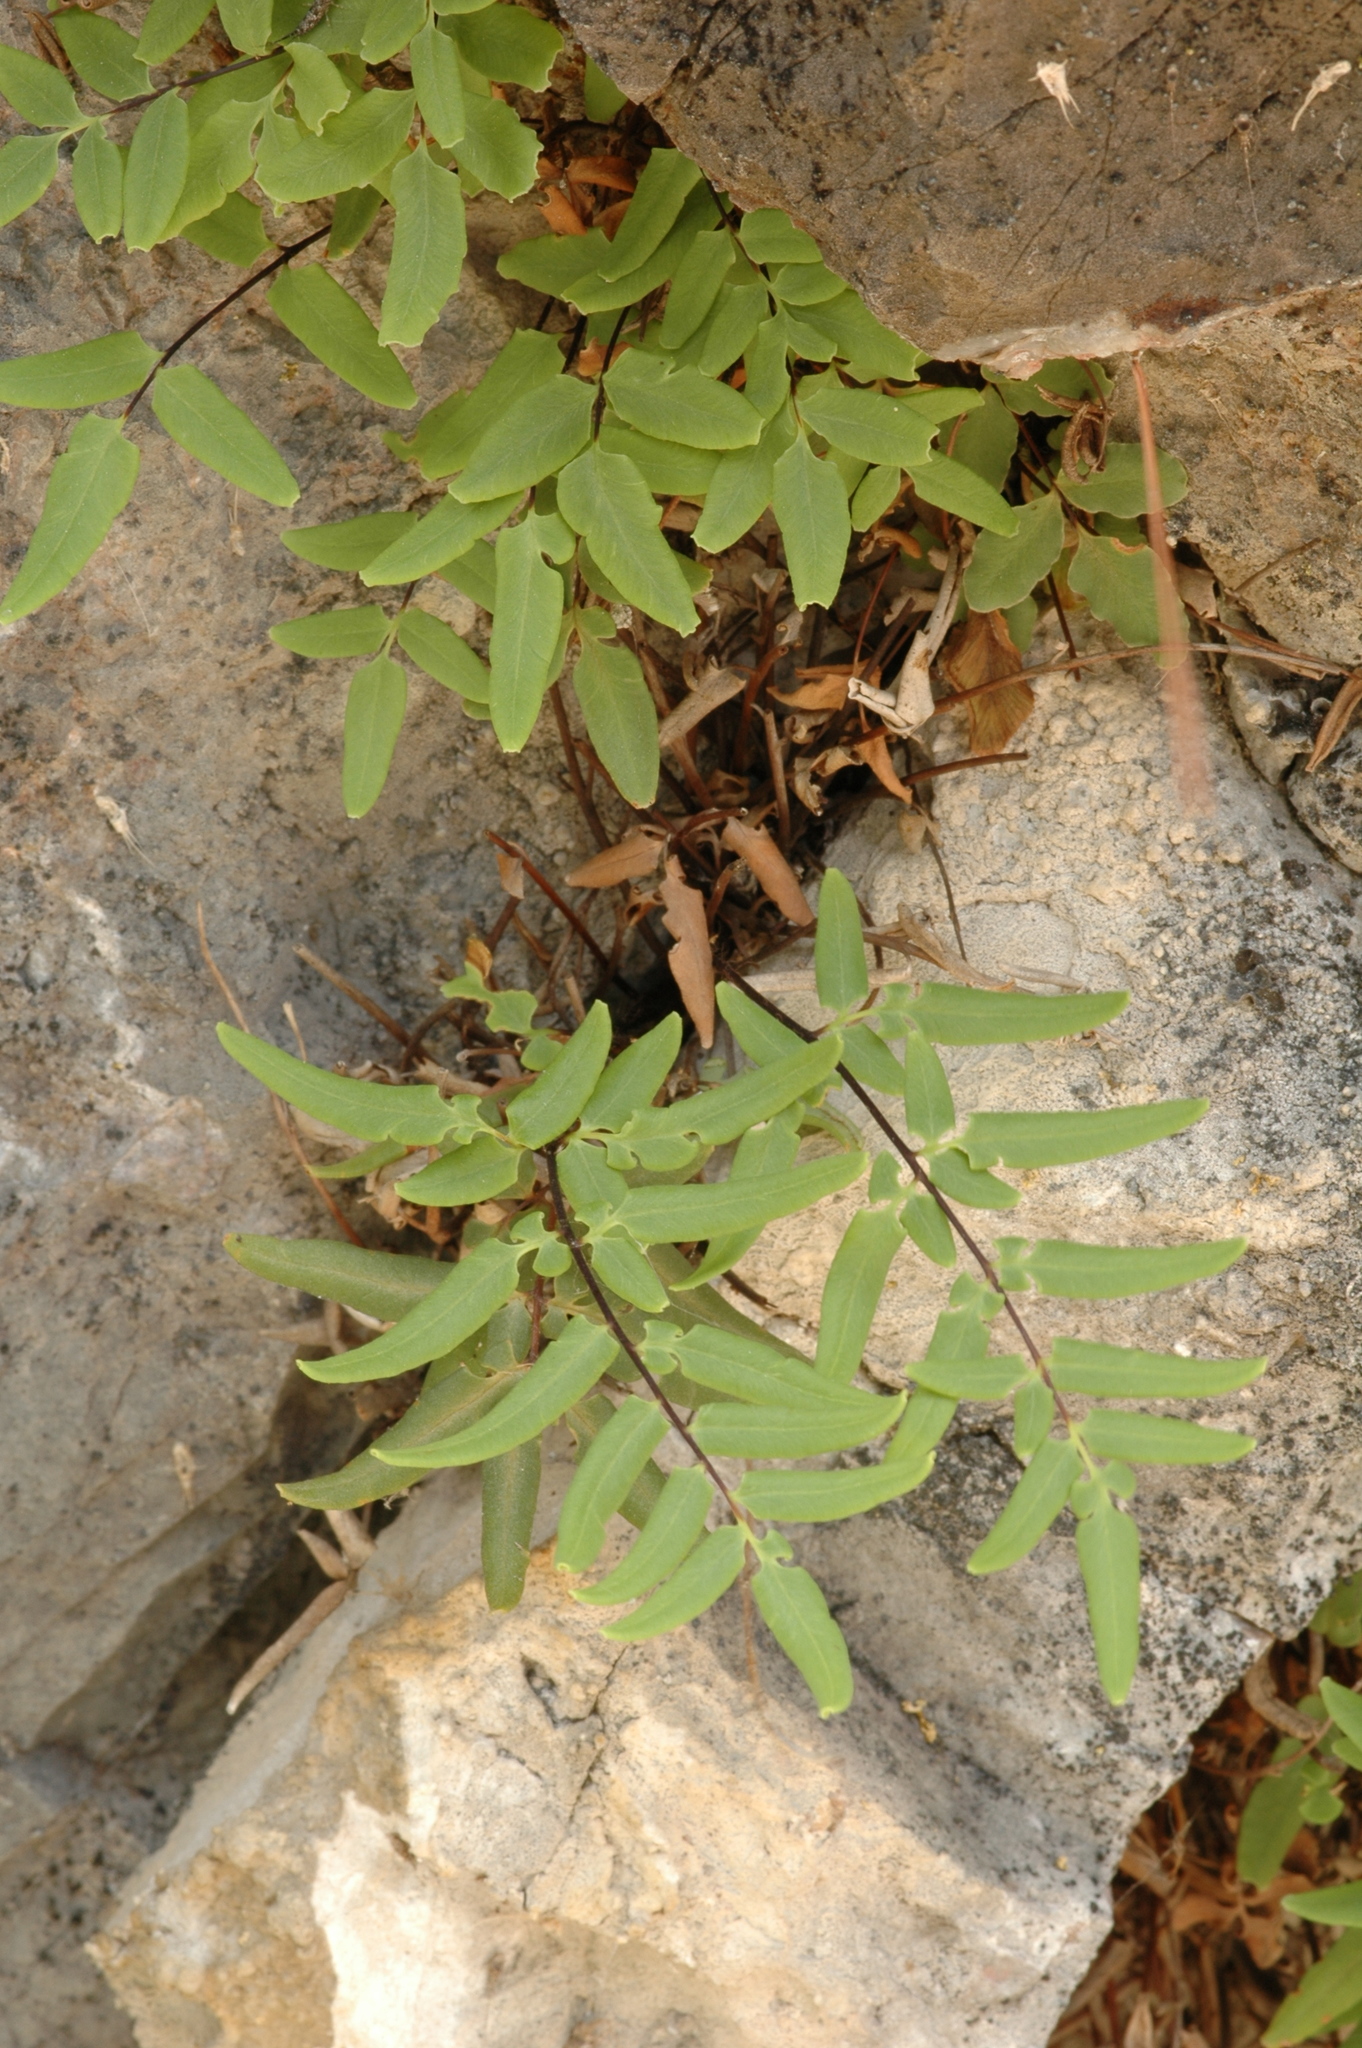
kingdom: Plantae
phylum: Tracheophyta
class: Polypodiopsida
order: Polypodiales
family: Pteridaceae
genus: Pellaea
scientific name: Pellaea glabella
